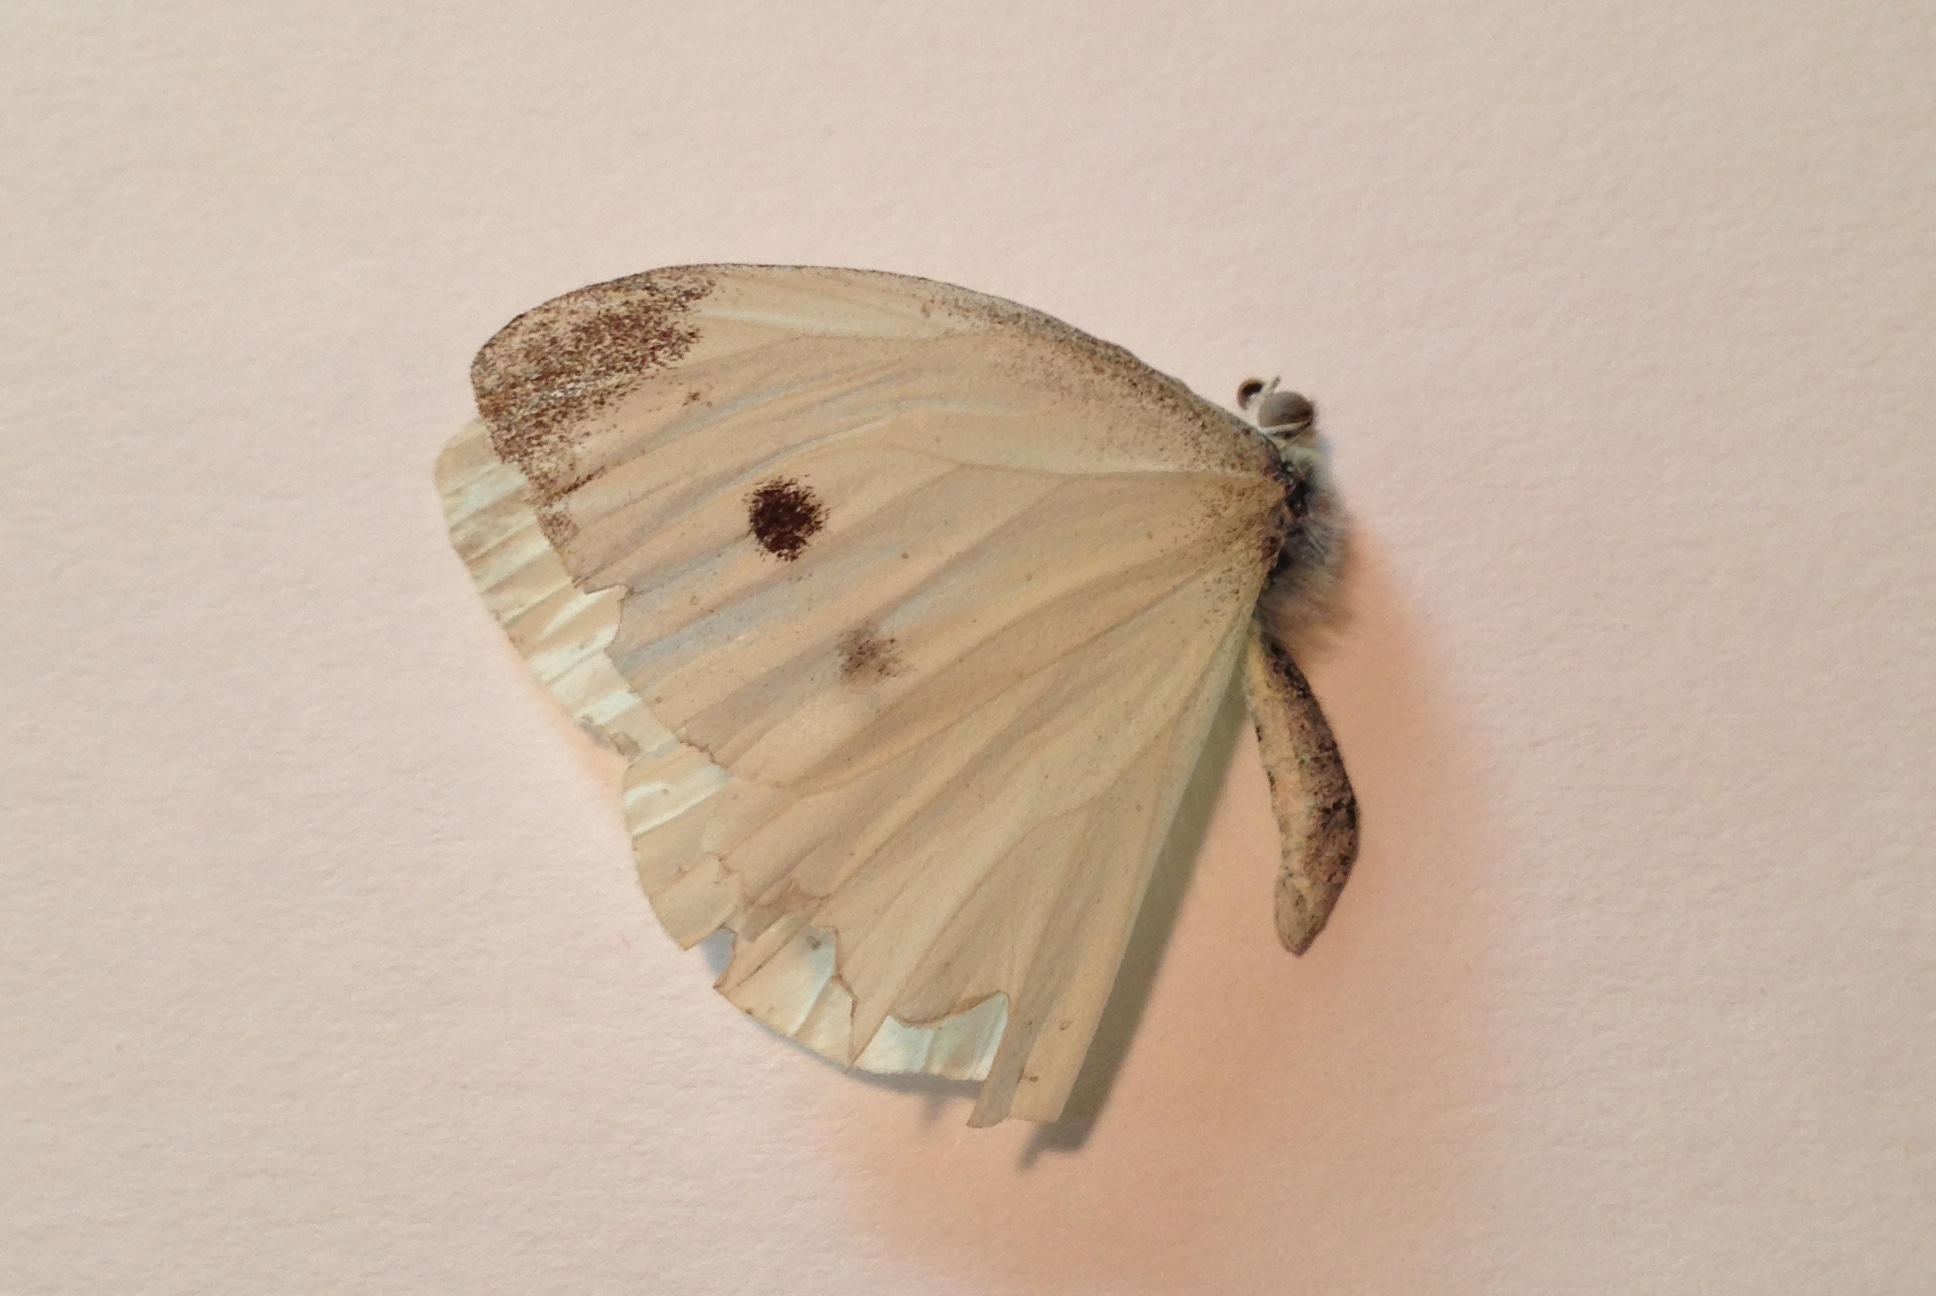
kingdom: Animalia
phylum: Arthropoda
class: Insecta
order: Lepidoptera
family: Pieridae
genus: Pieris
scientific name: Pieris rapae
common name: Small white
